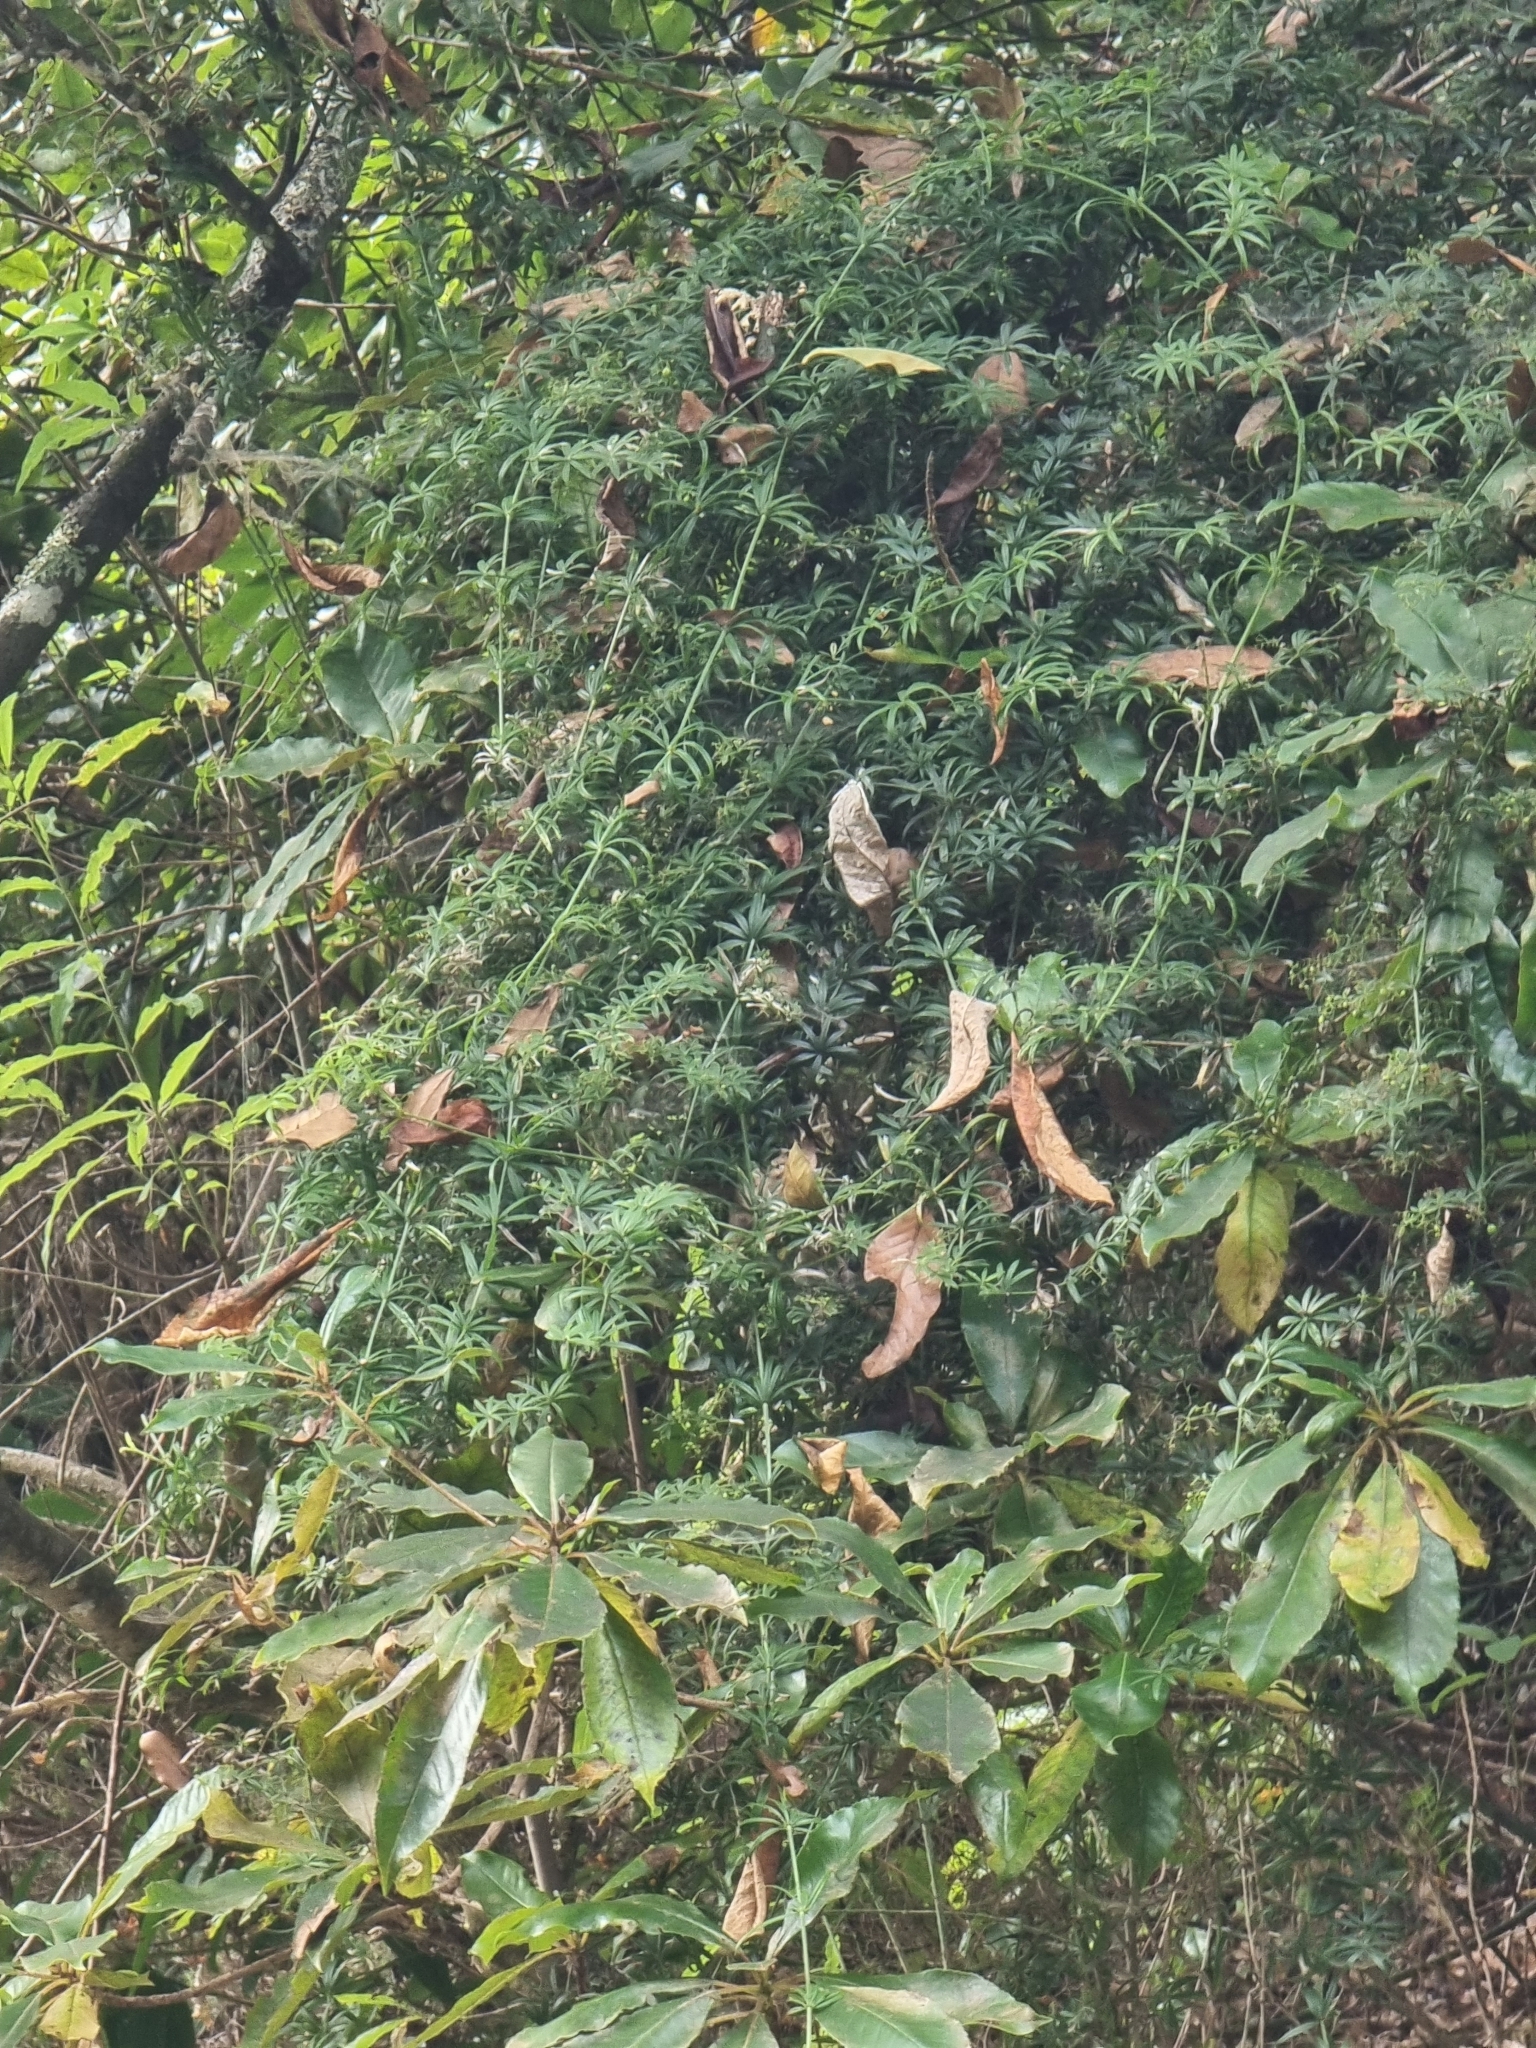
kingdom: Plantae
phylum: Tracheophyta
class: Magnoliopsida
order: Gentianales
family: Rubiaceae
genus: Rubia
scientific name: Rubia occidens
